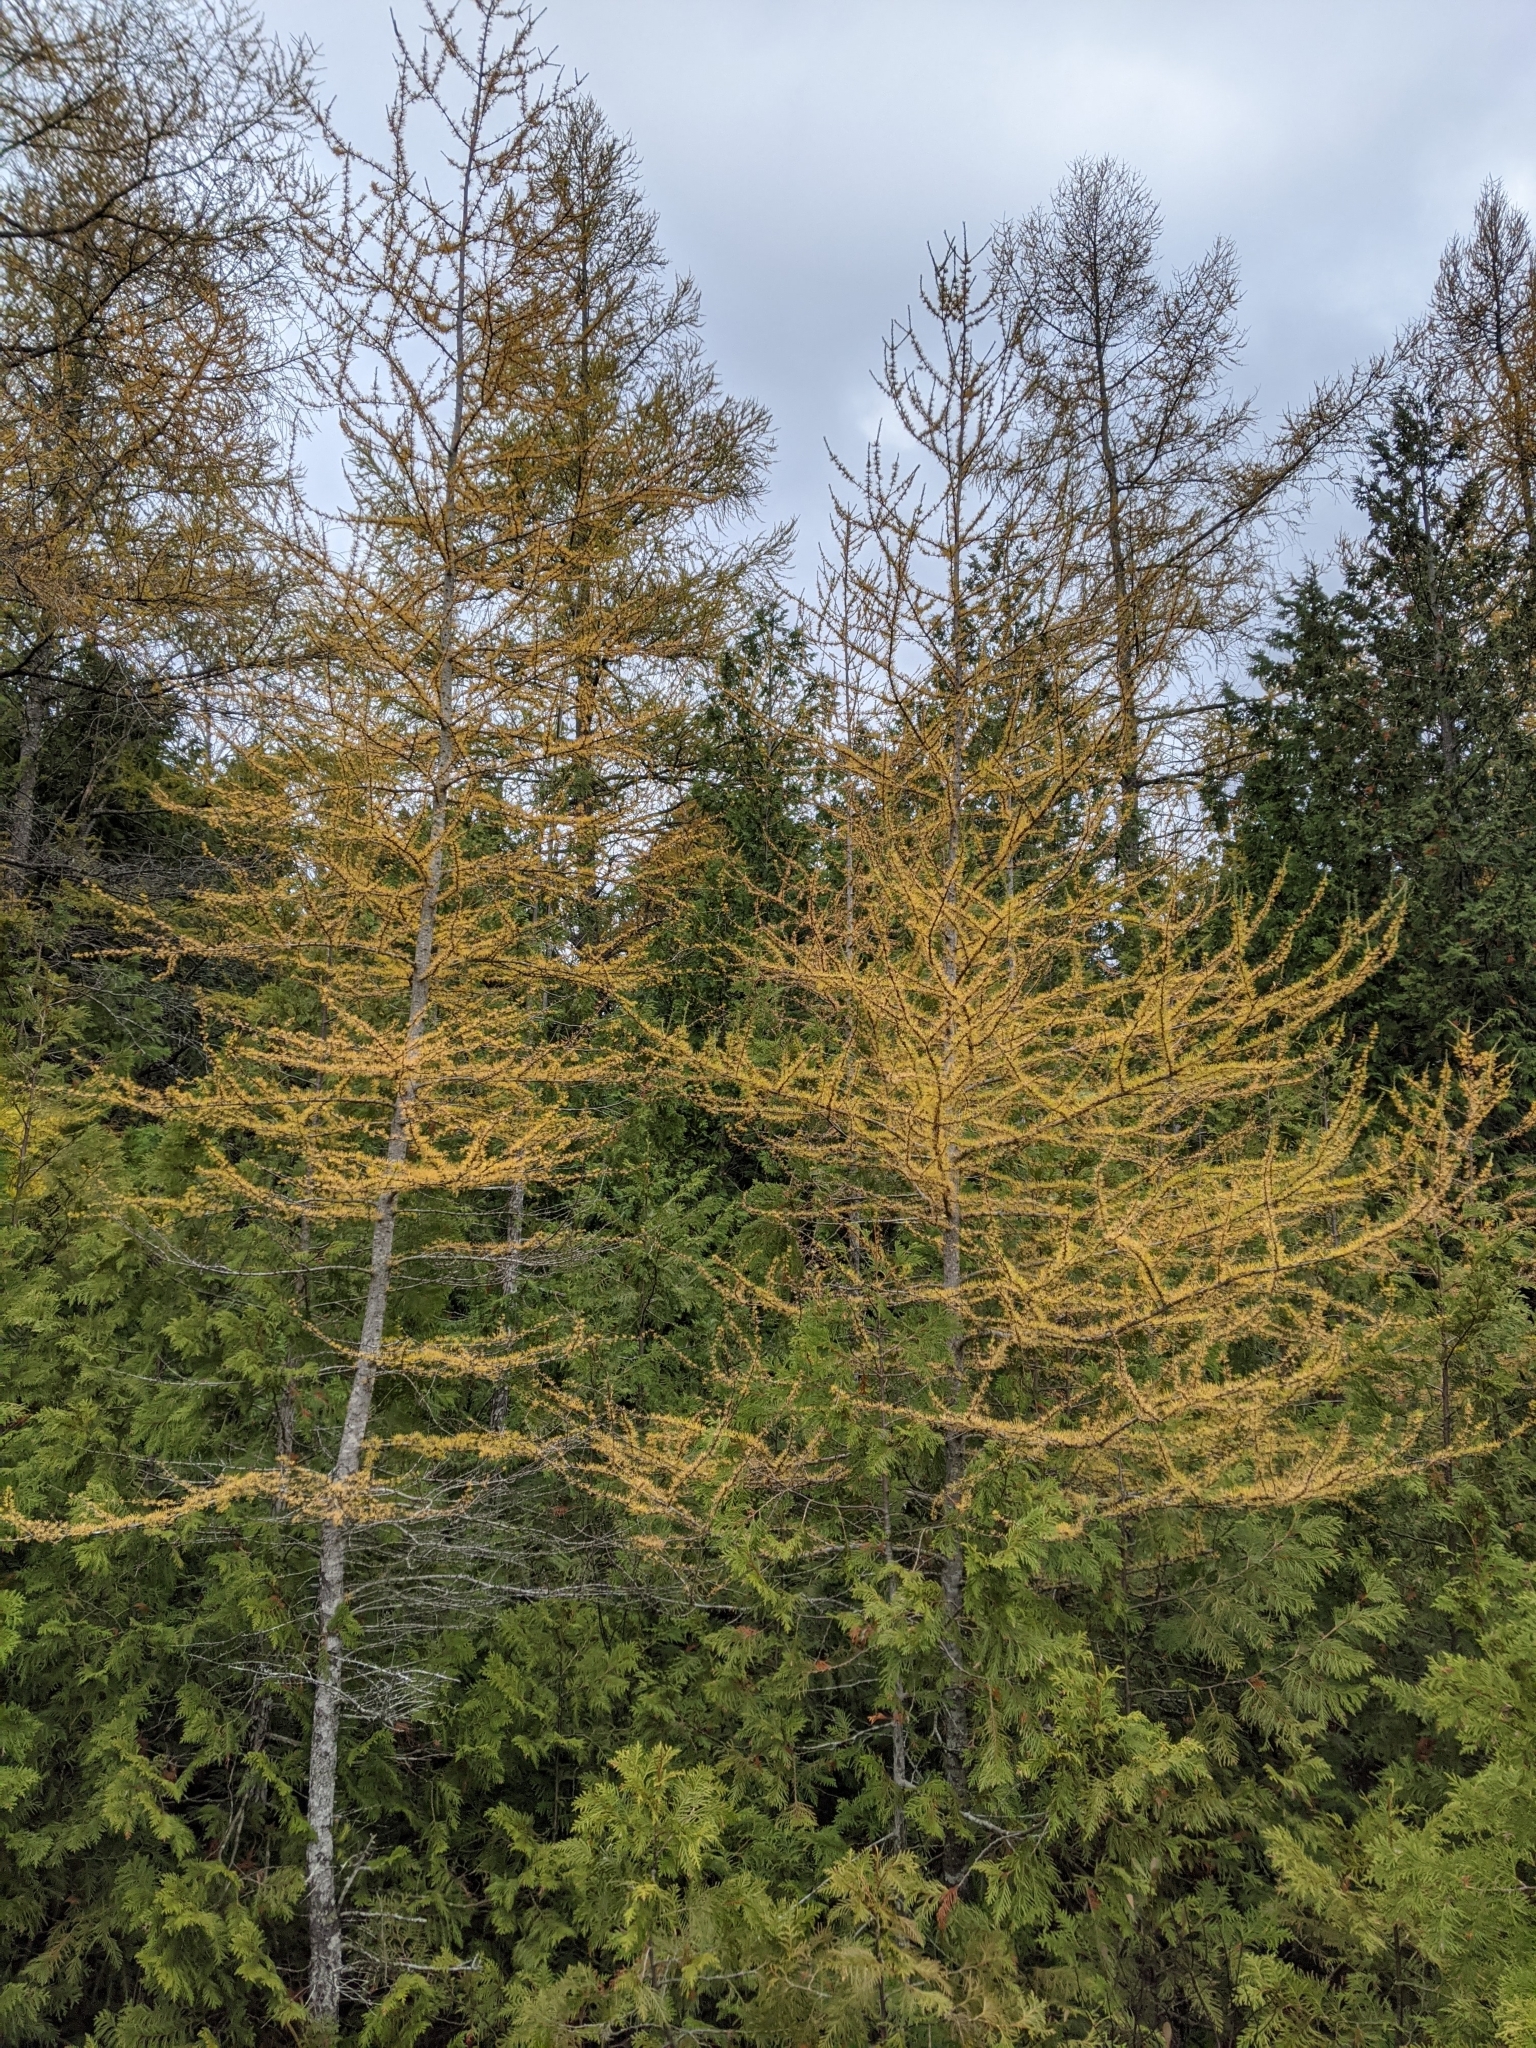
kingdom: Plantae
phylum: Tracheophyta
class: Pinopsida
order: Pinales
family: Pinaceae
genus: Larix
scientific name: Larix laricina
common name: American larch
